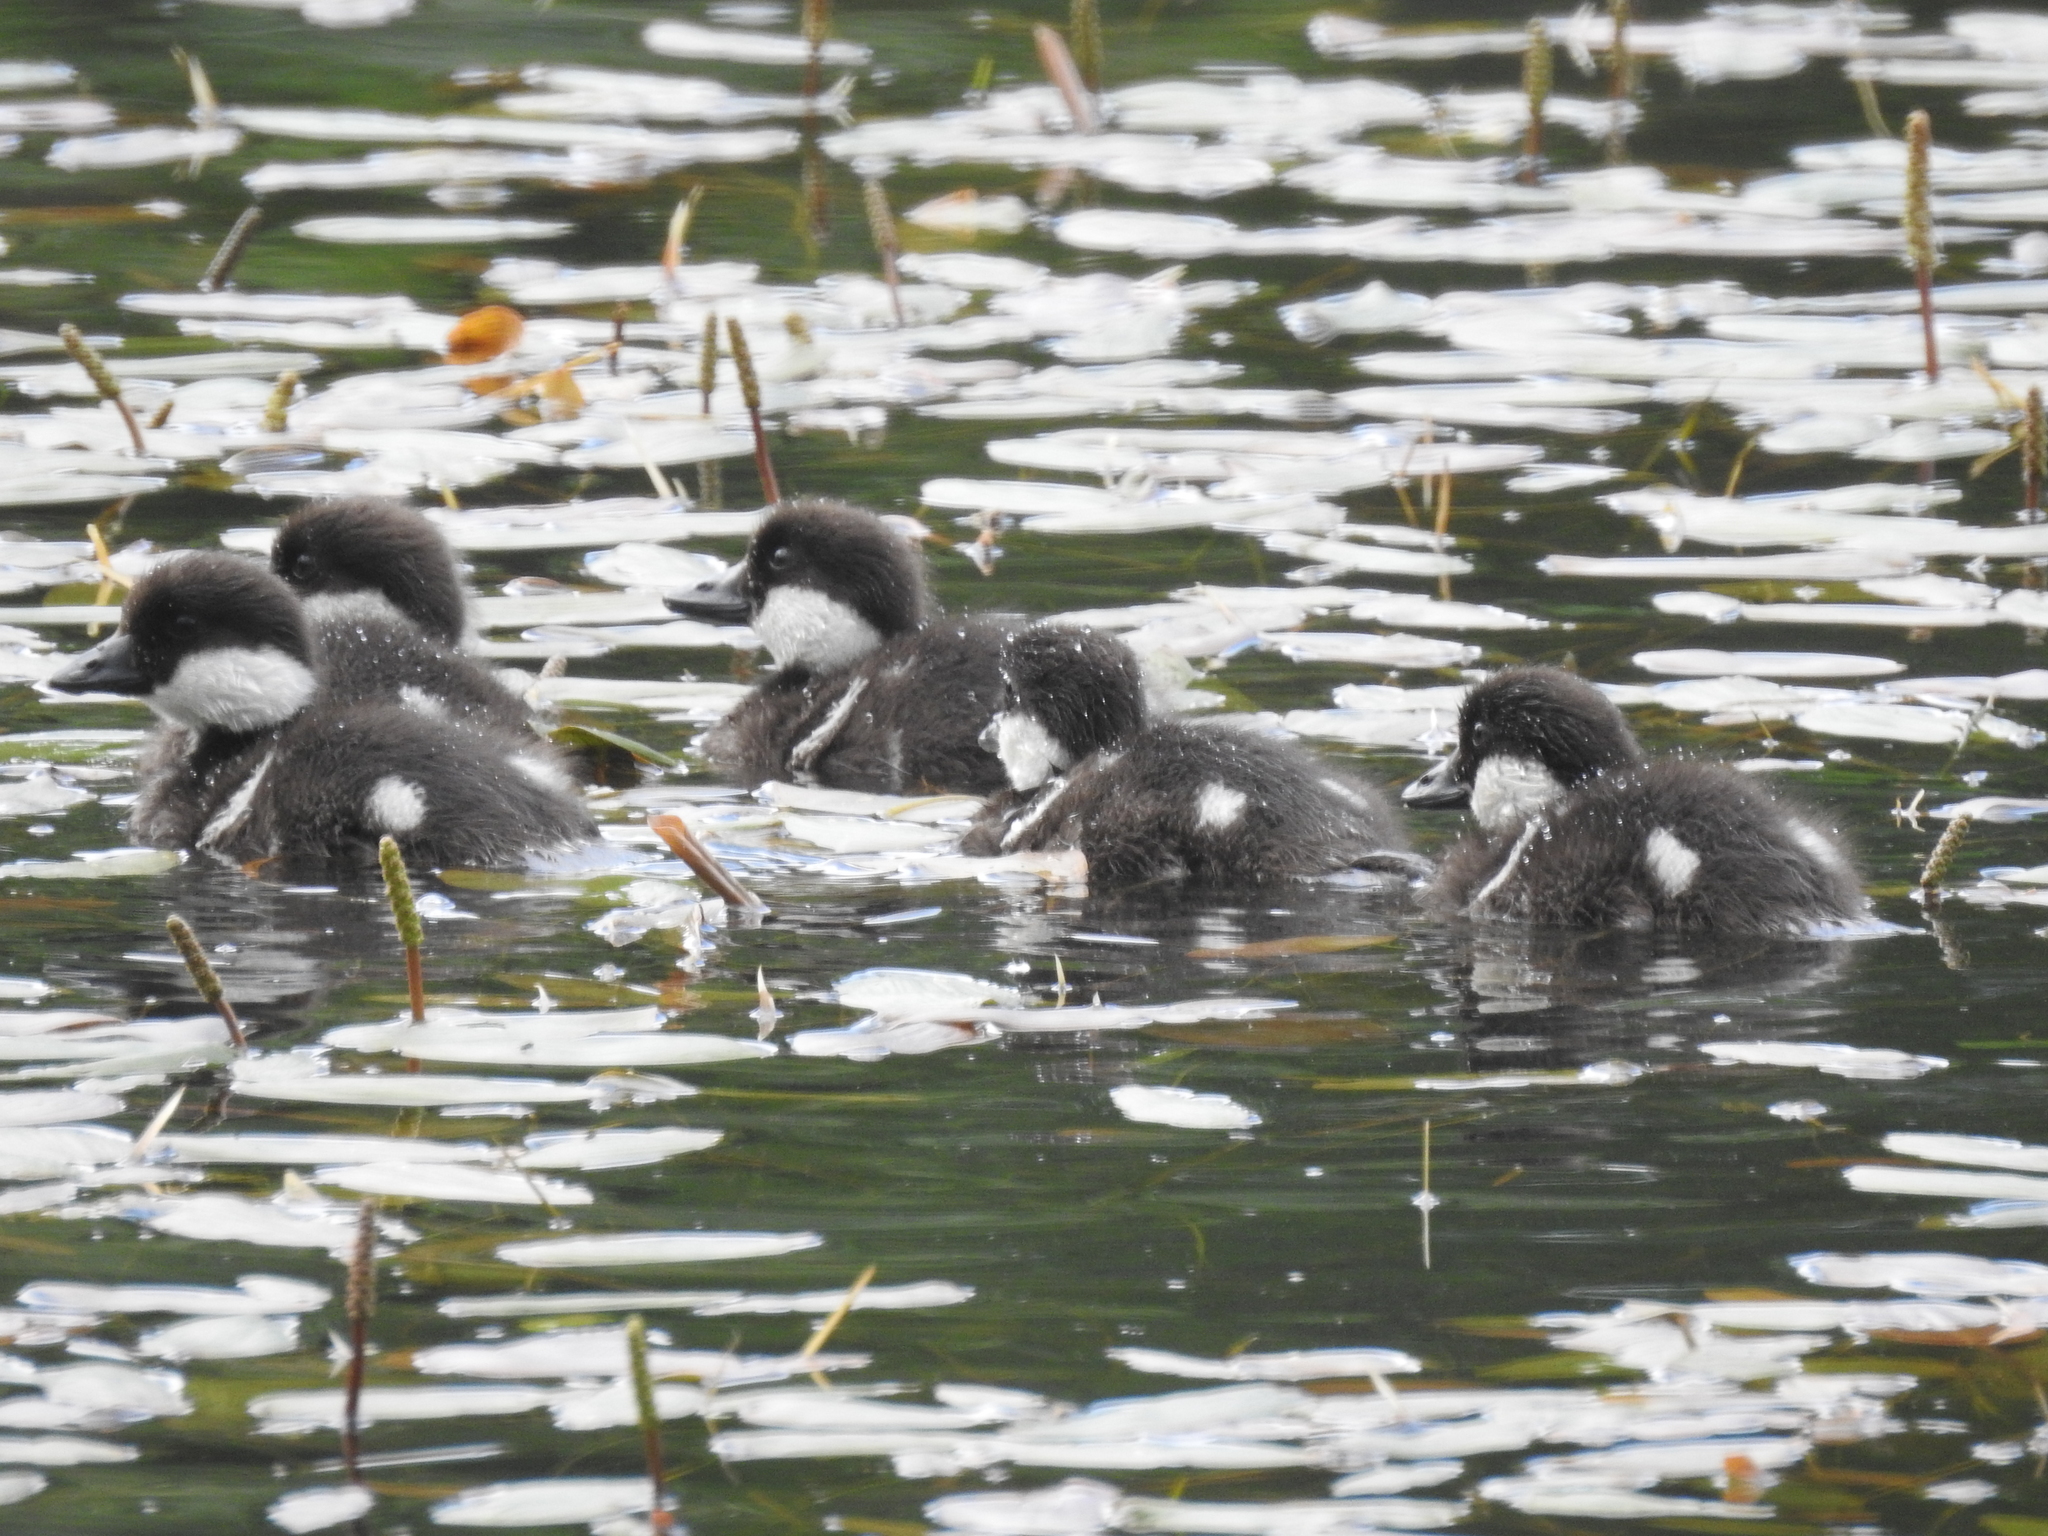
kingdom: Animalia
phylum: Chordata
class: Aves
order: Anseriformes
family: Anatidae
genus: Bucephala
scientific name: Bucephala clangula
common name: Common goldeneye
